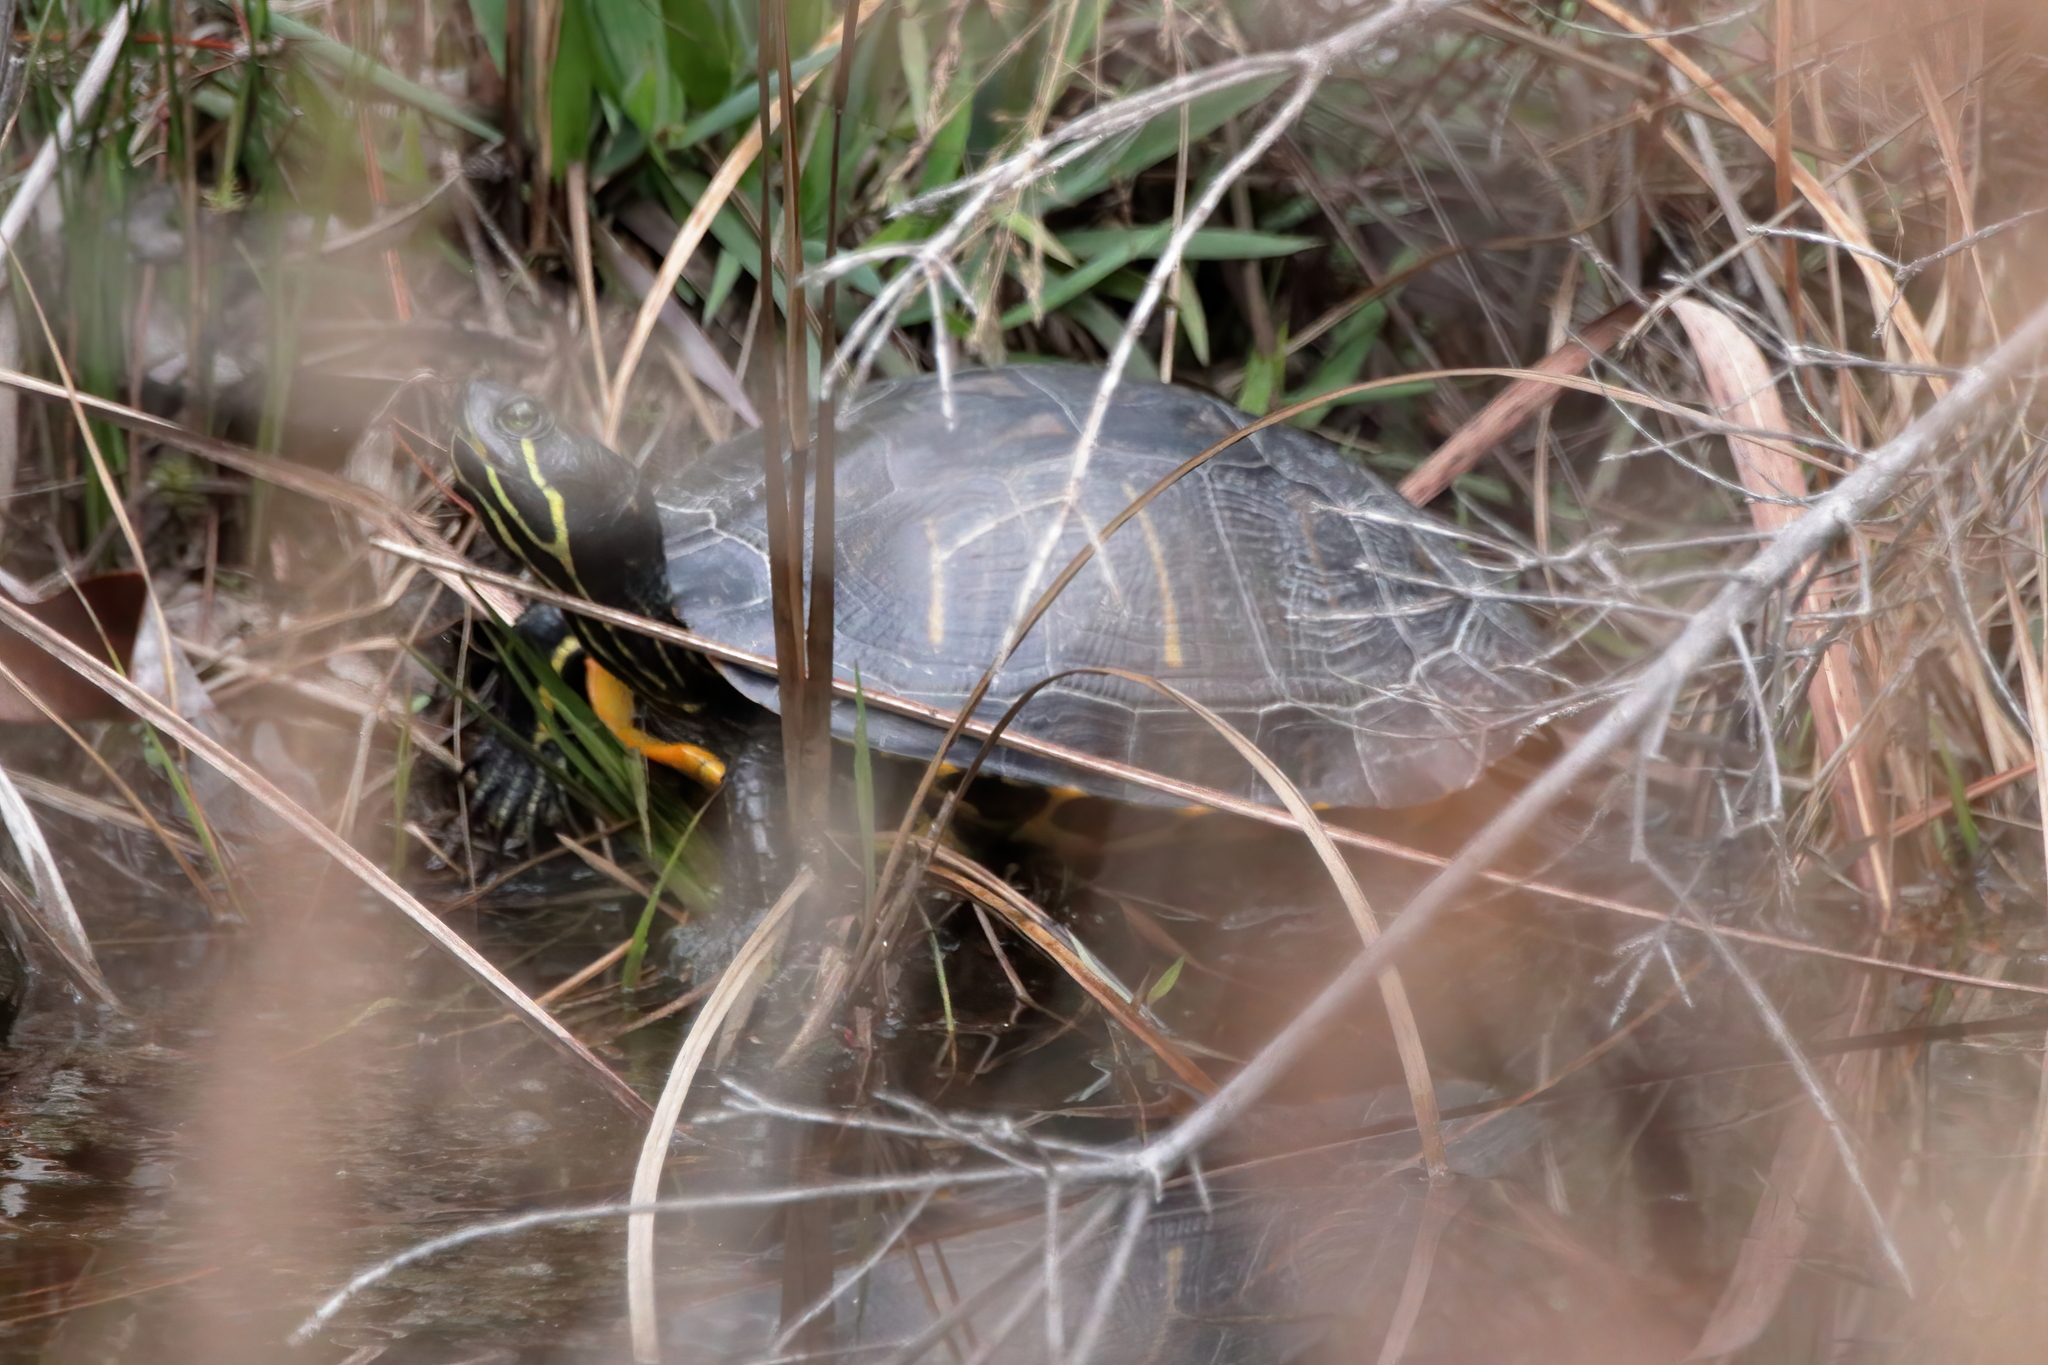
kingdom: Animalia
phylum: Chordata
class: Testudines
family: Emydidae
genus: Trachemys
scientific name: Trachemys scripta
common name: Slider
